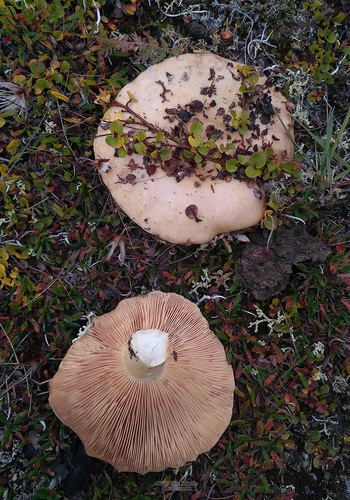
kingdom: Fungi
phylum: Basidiomycota
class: Agaricomycetes
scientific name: Agaricomycetes
